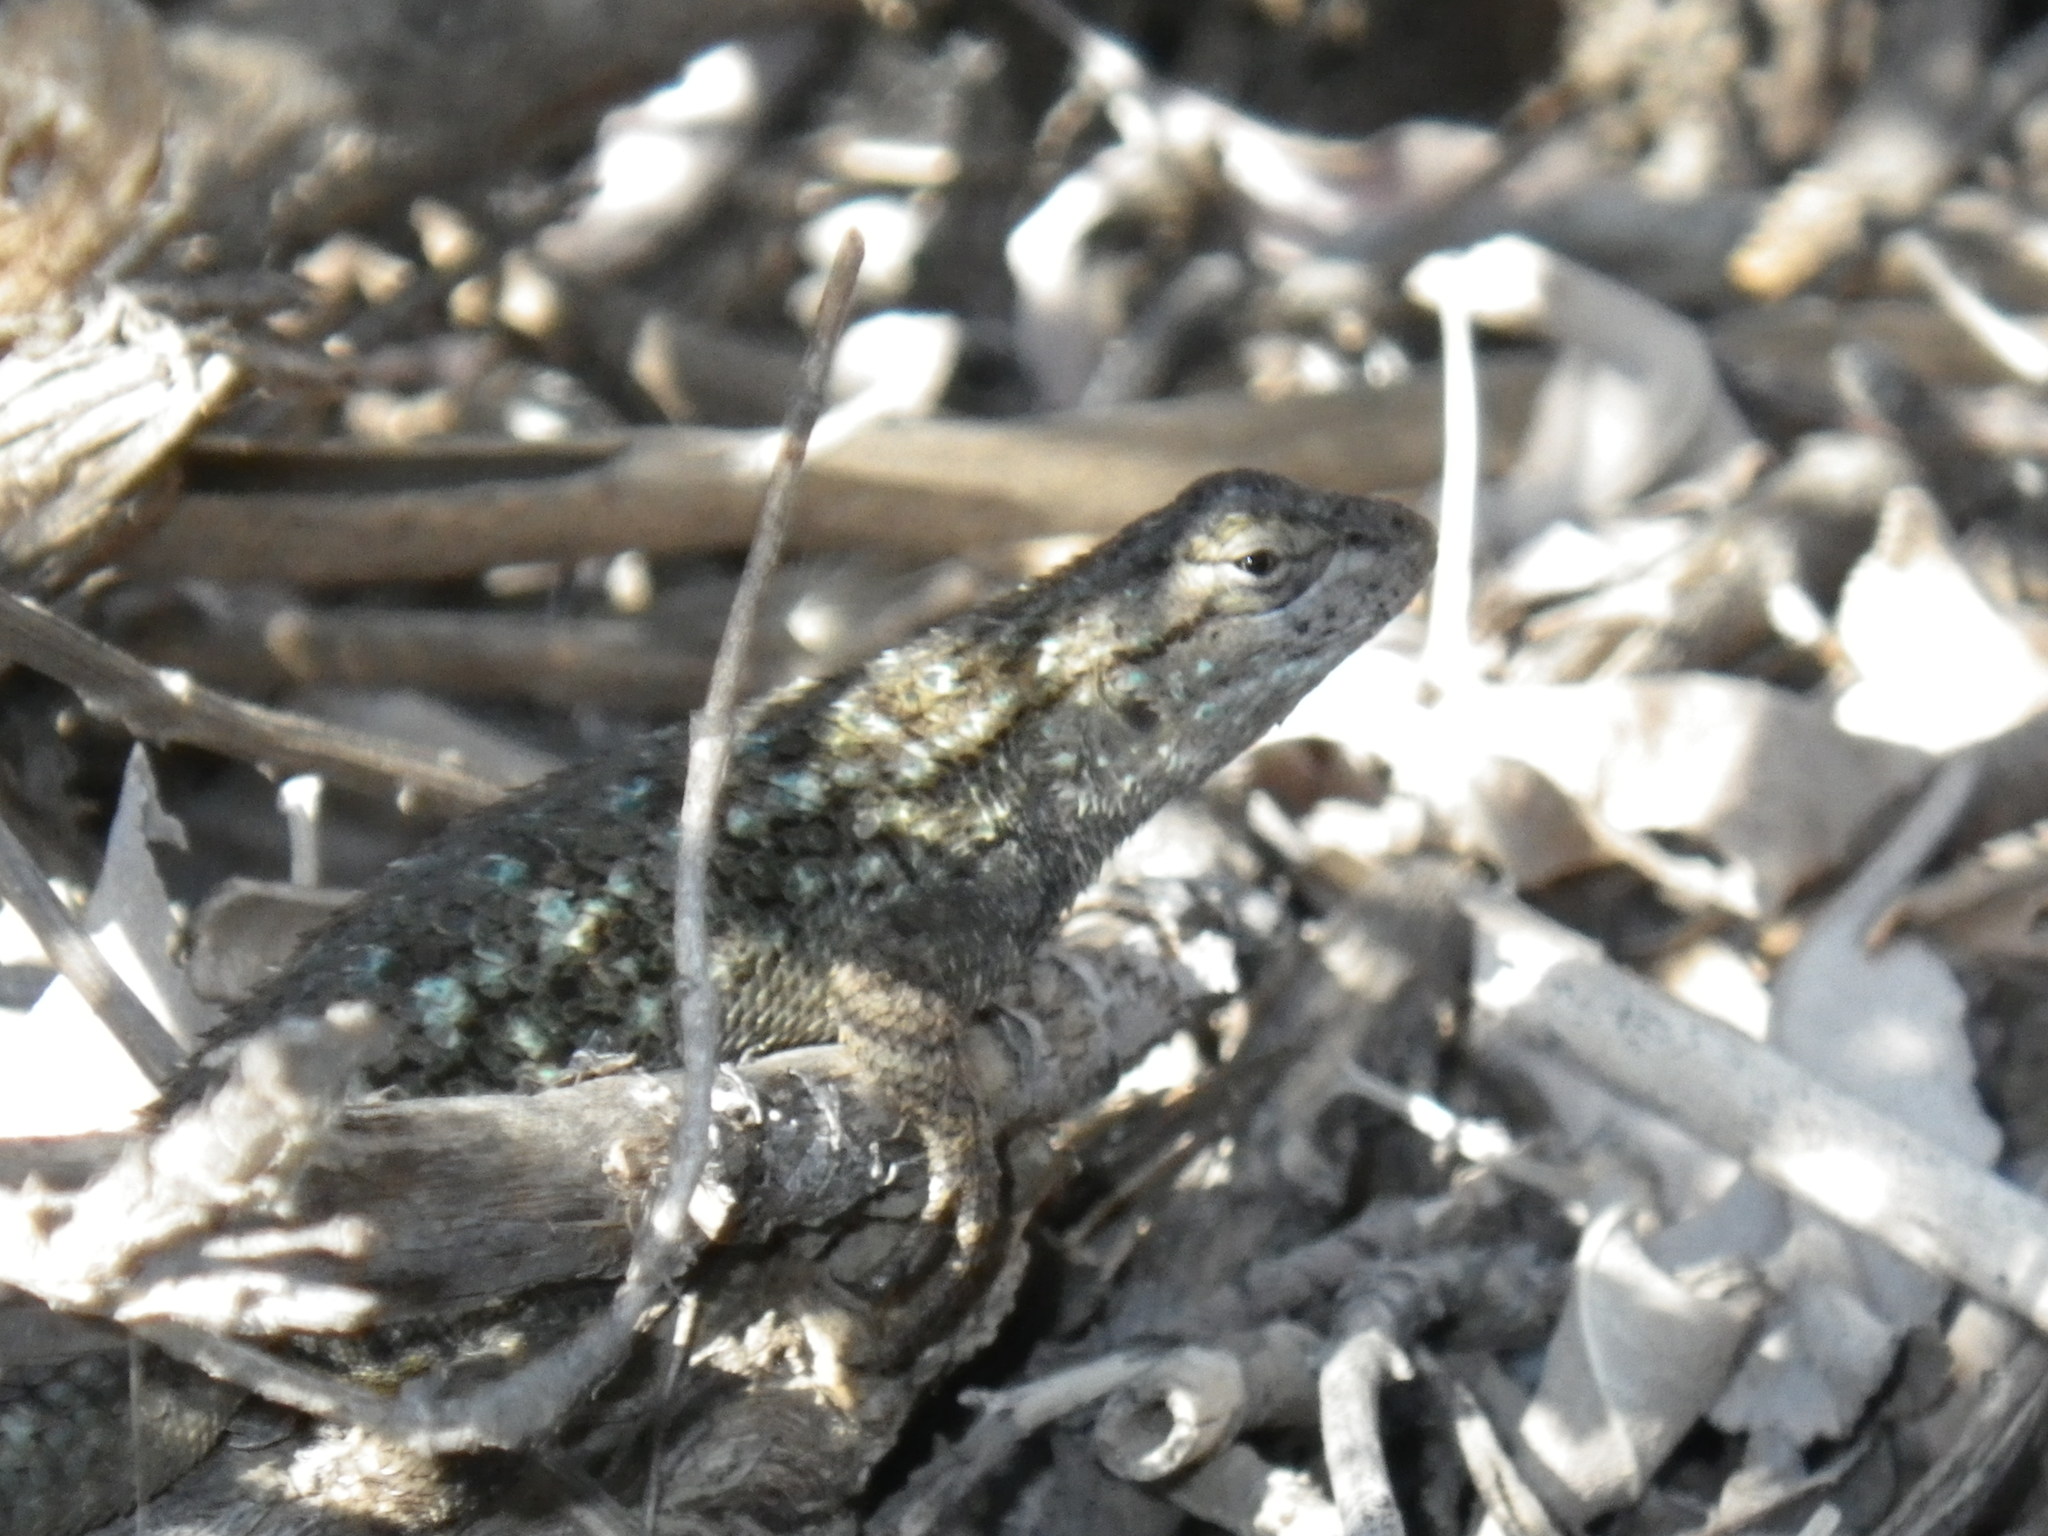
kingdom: Animalia
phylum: Chordata
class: Squamata
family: Phrynosomatidae
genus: Sceloporus
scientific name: Sceloporus occidentalis
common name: Western fence lizard
